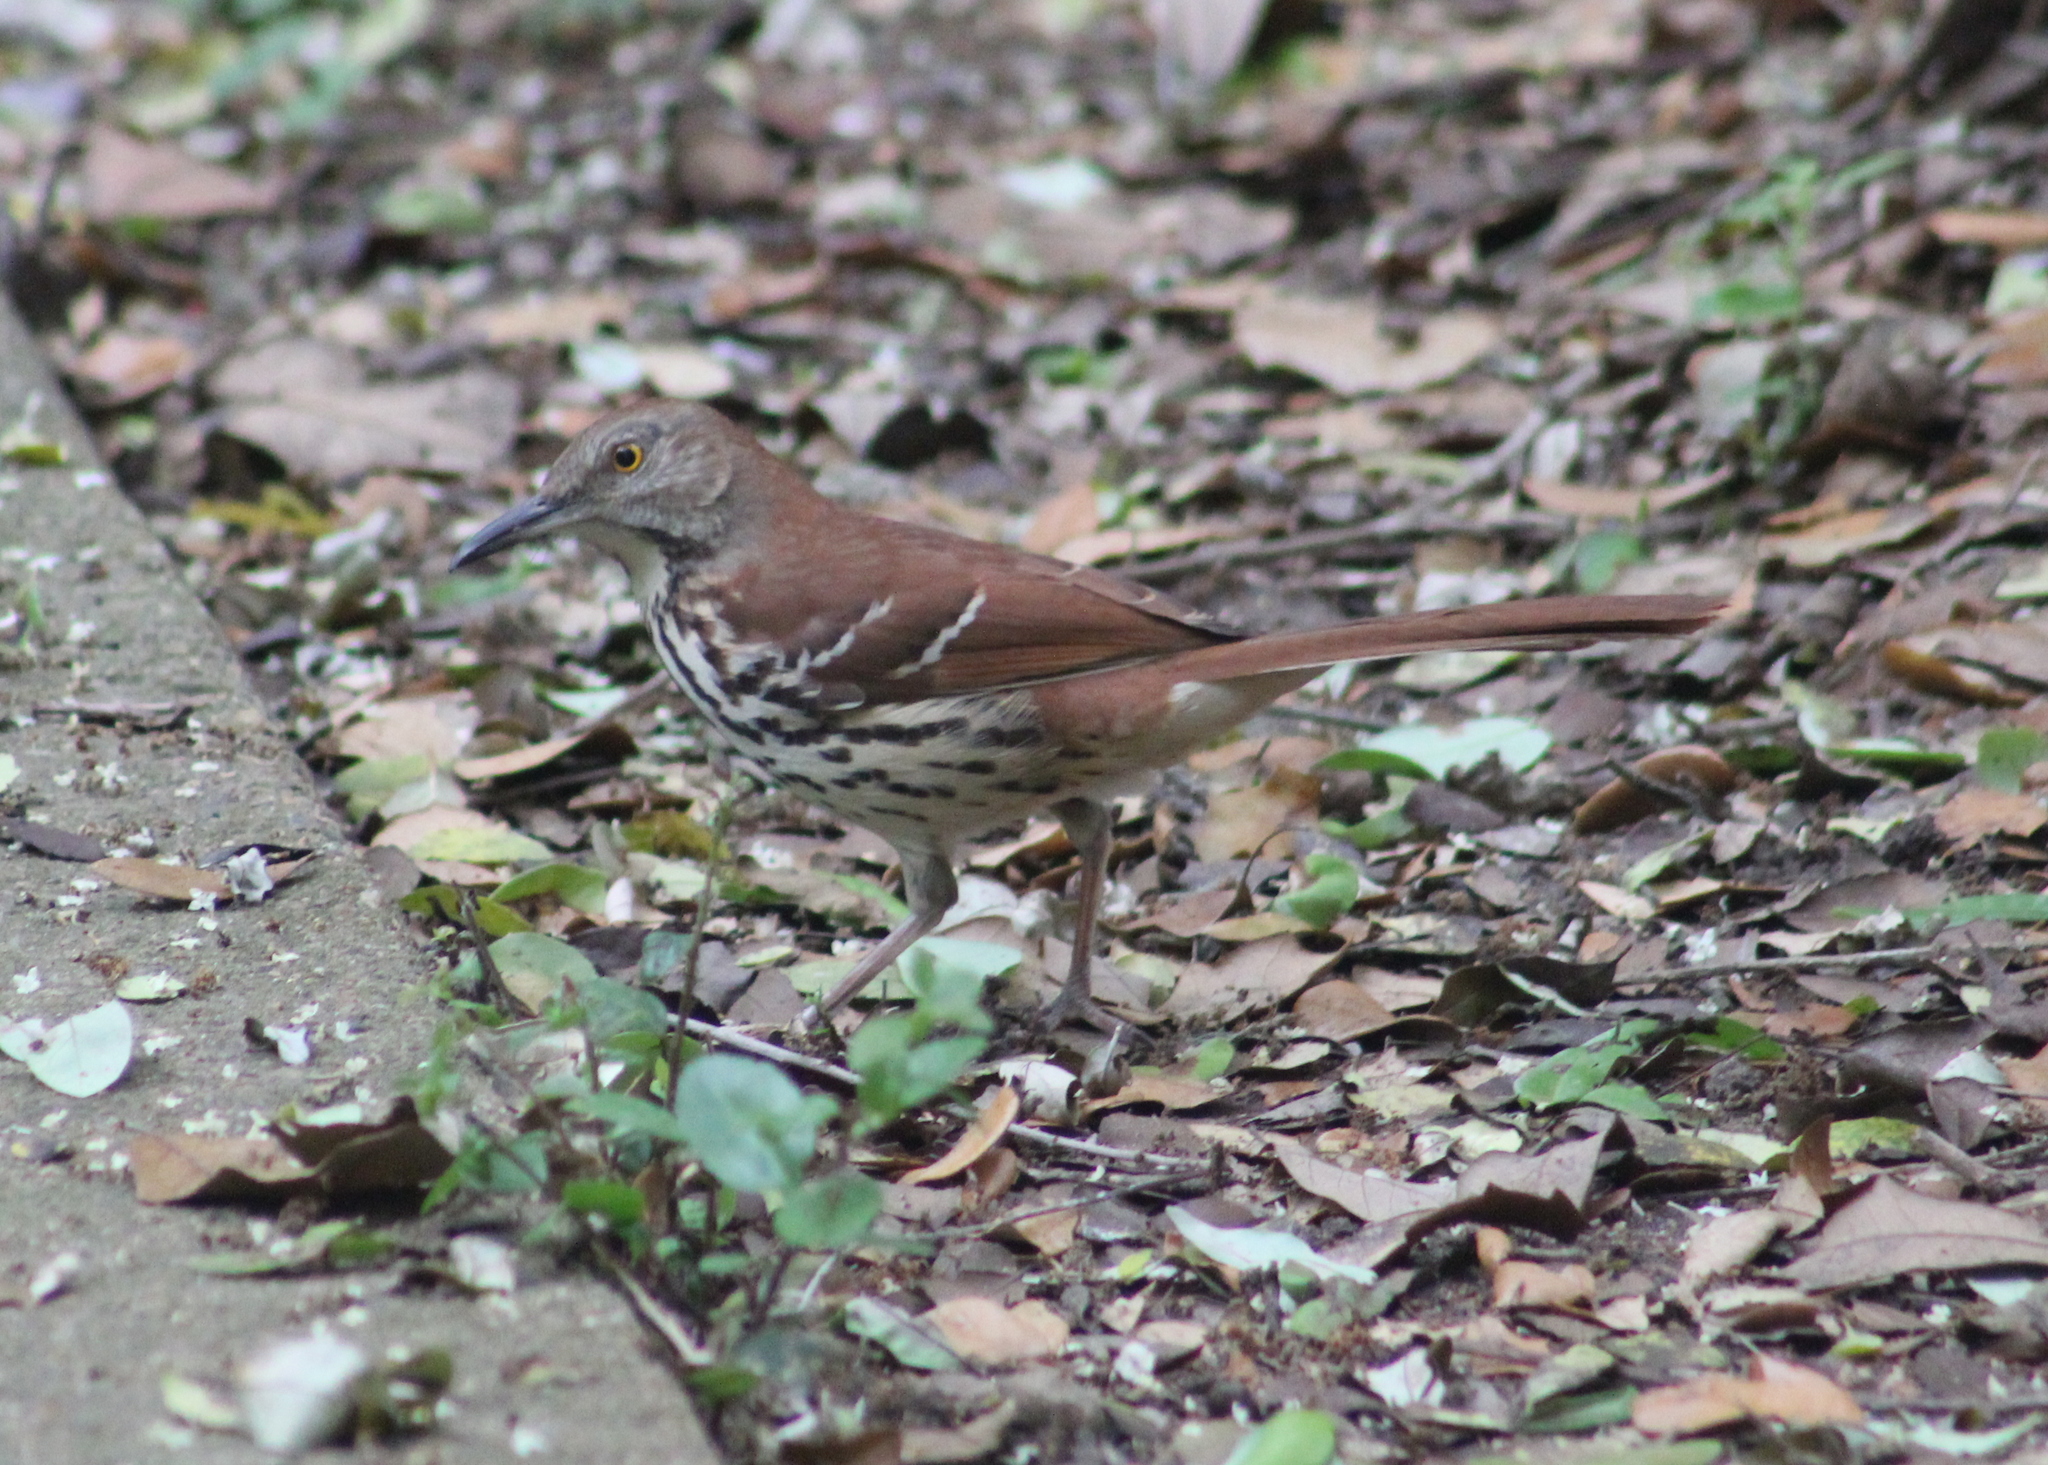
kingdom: Animalia
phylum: Chordata
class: Aves
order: Passeriformes
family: Mimidae
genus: Toxostoma
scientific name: Toxostoma rufum
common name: Brown thrasher
